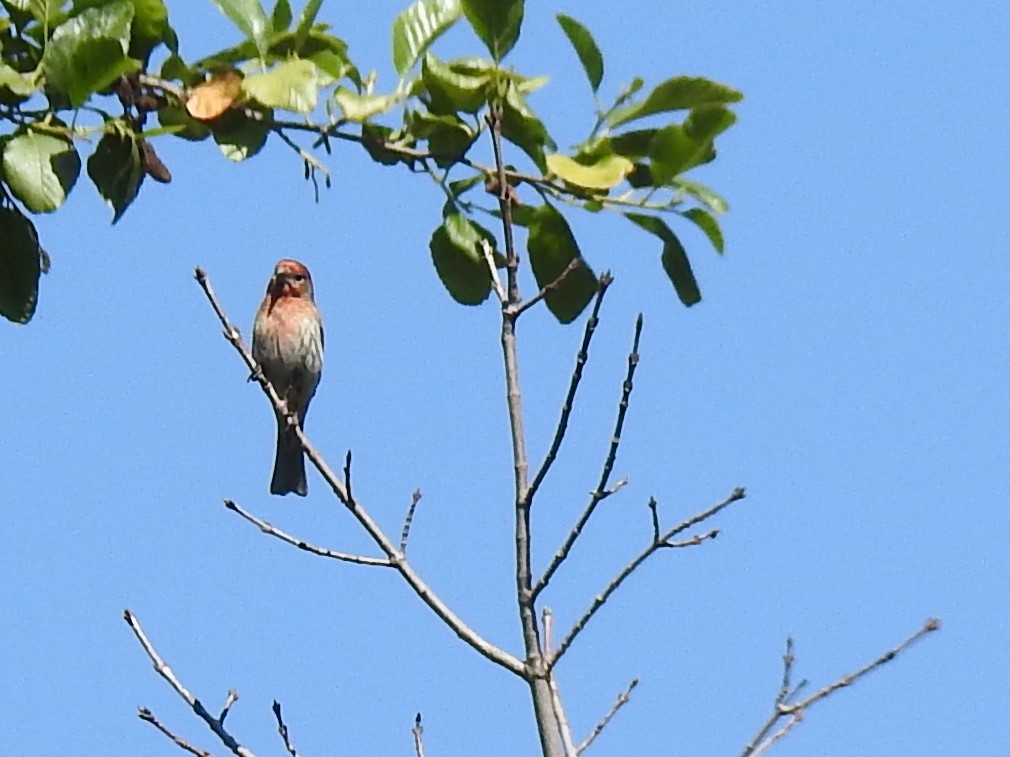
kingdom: Animalia
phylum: Chordata
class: Aves
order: Passeriformes
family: Fringillidae
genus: Haemorhous
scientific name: Haemorhous mexicanus
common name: House finch
